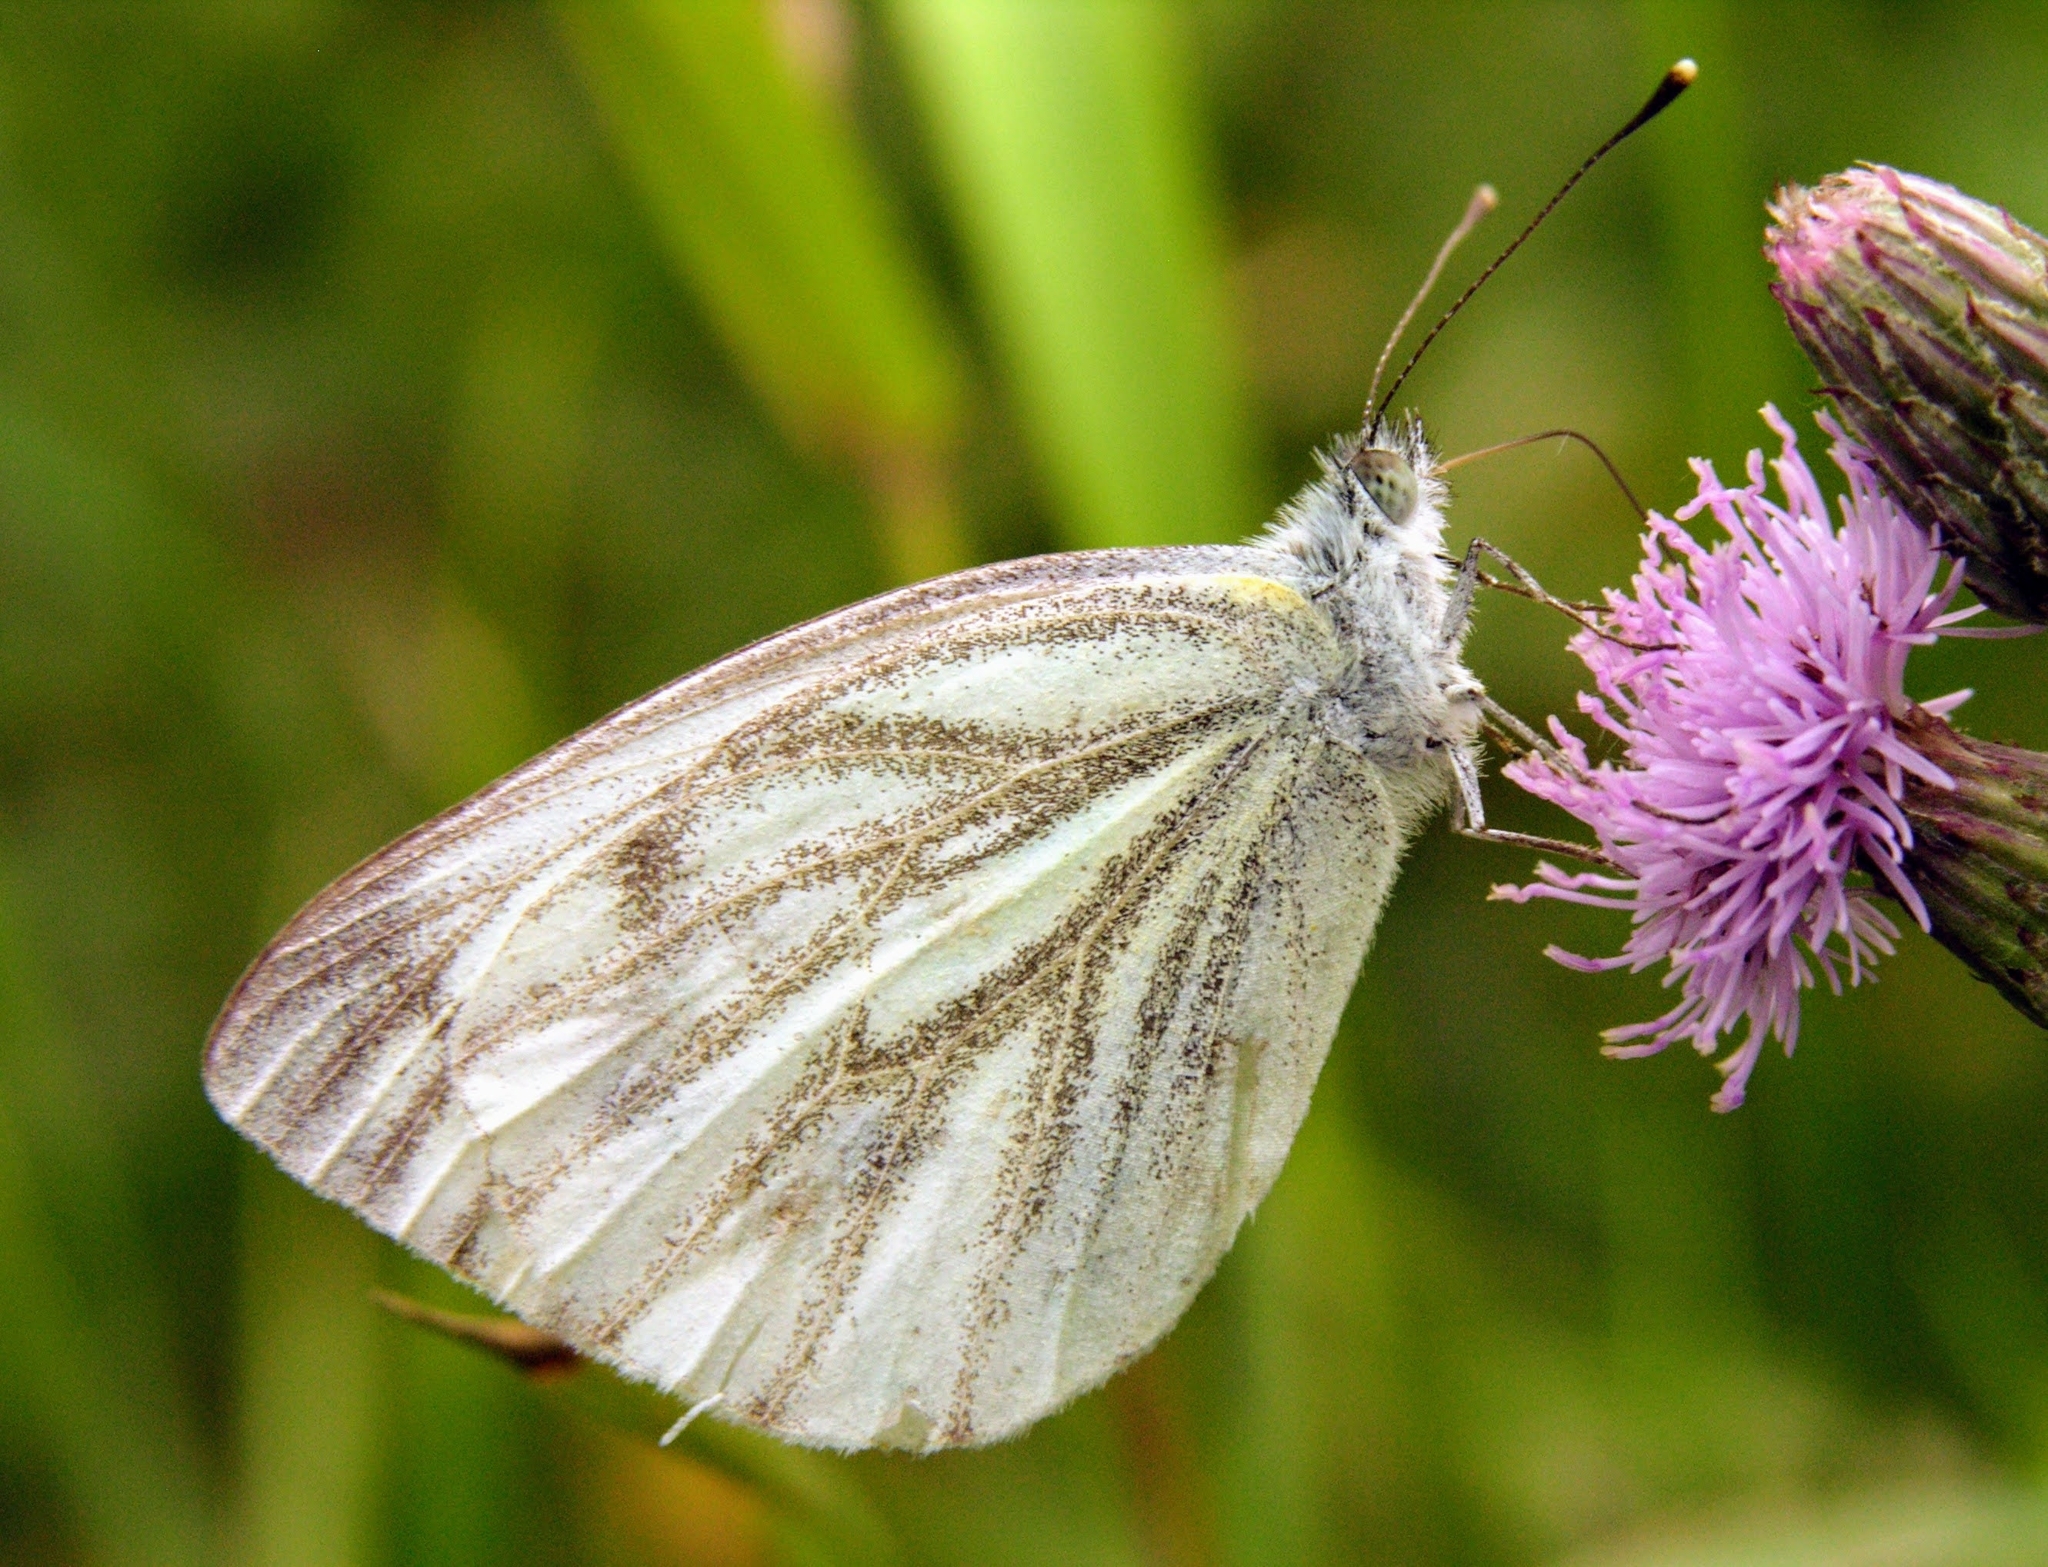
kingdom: Animalia
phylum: Arthropoda
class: Insecta
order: Lepidoptera
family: Pieridae
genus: Pieris
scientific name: Pieris napi
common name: Green-veined white
